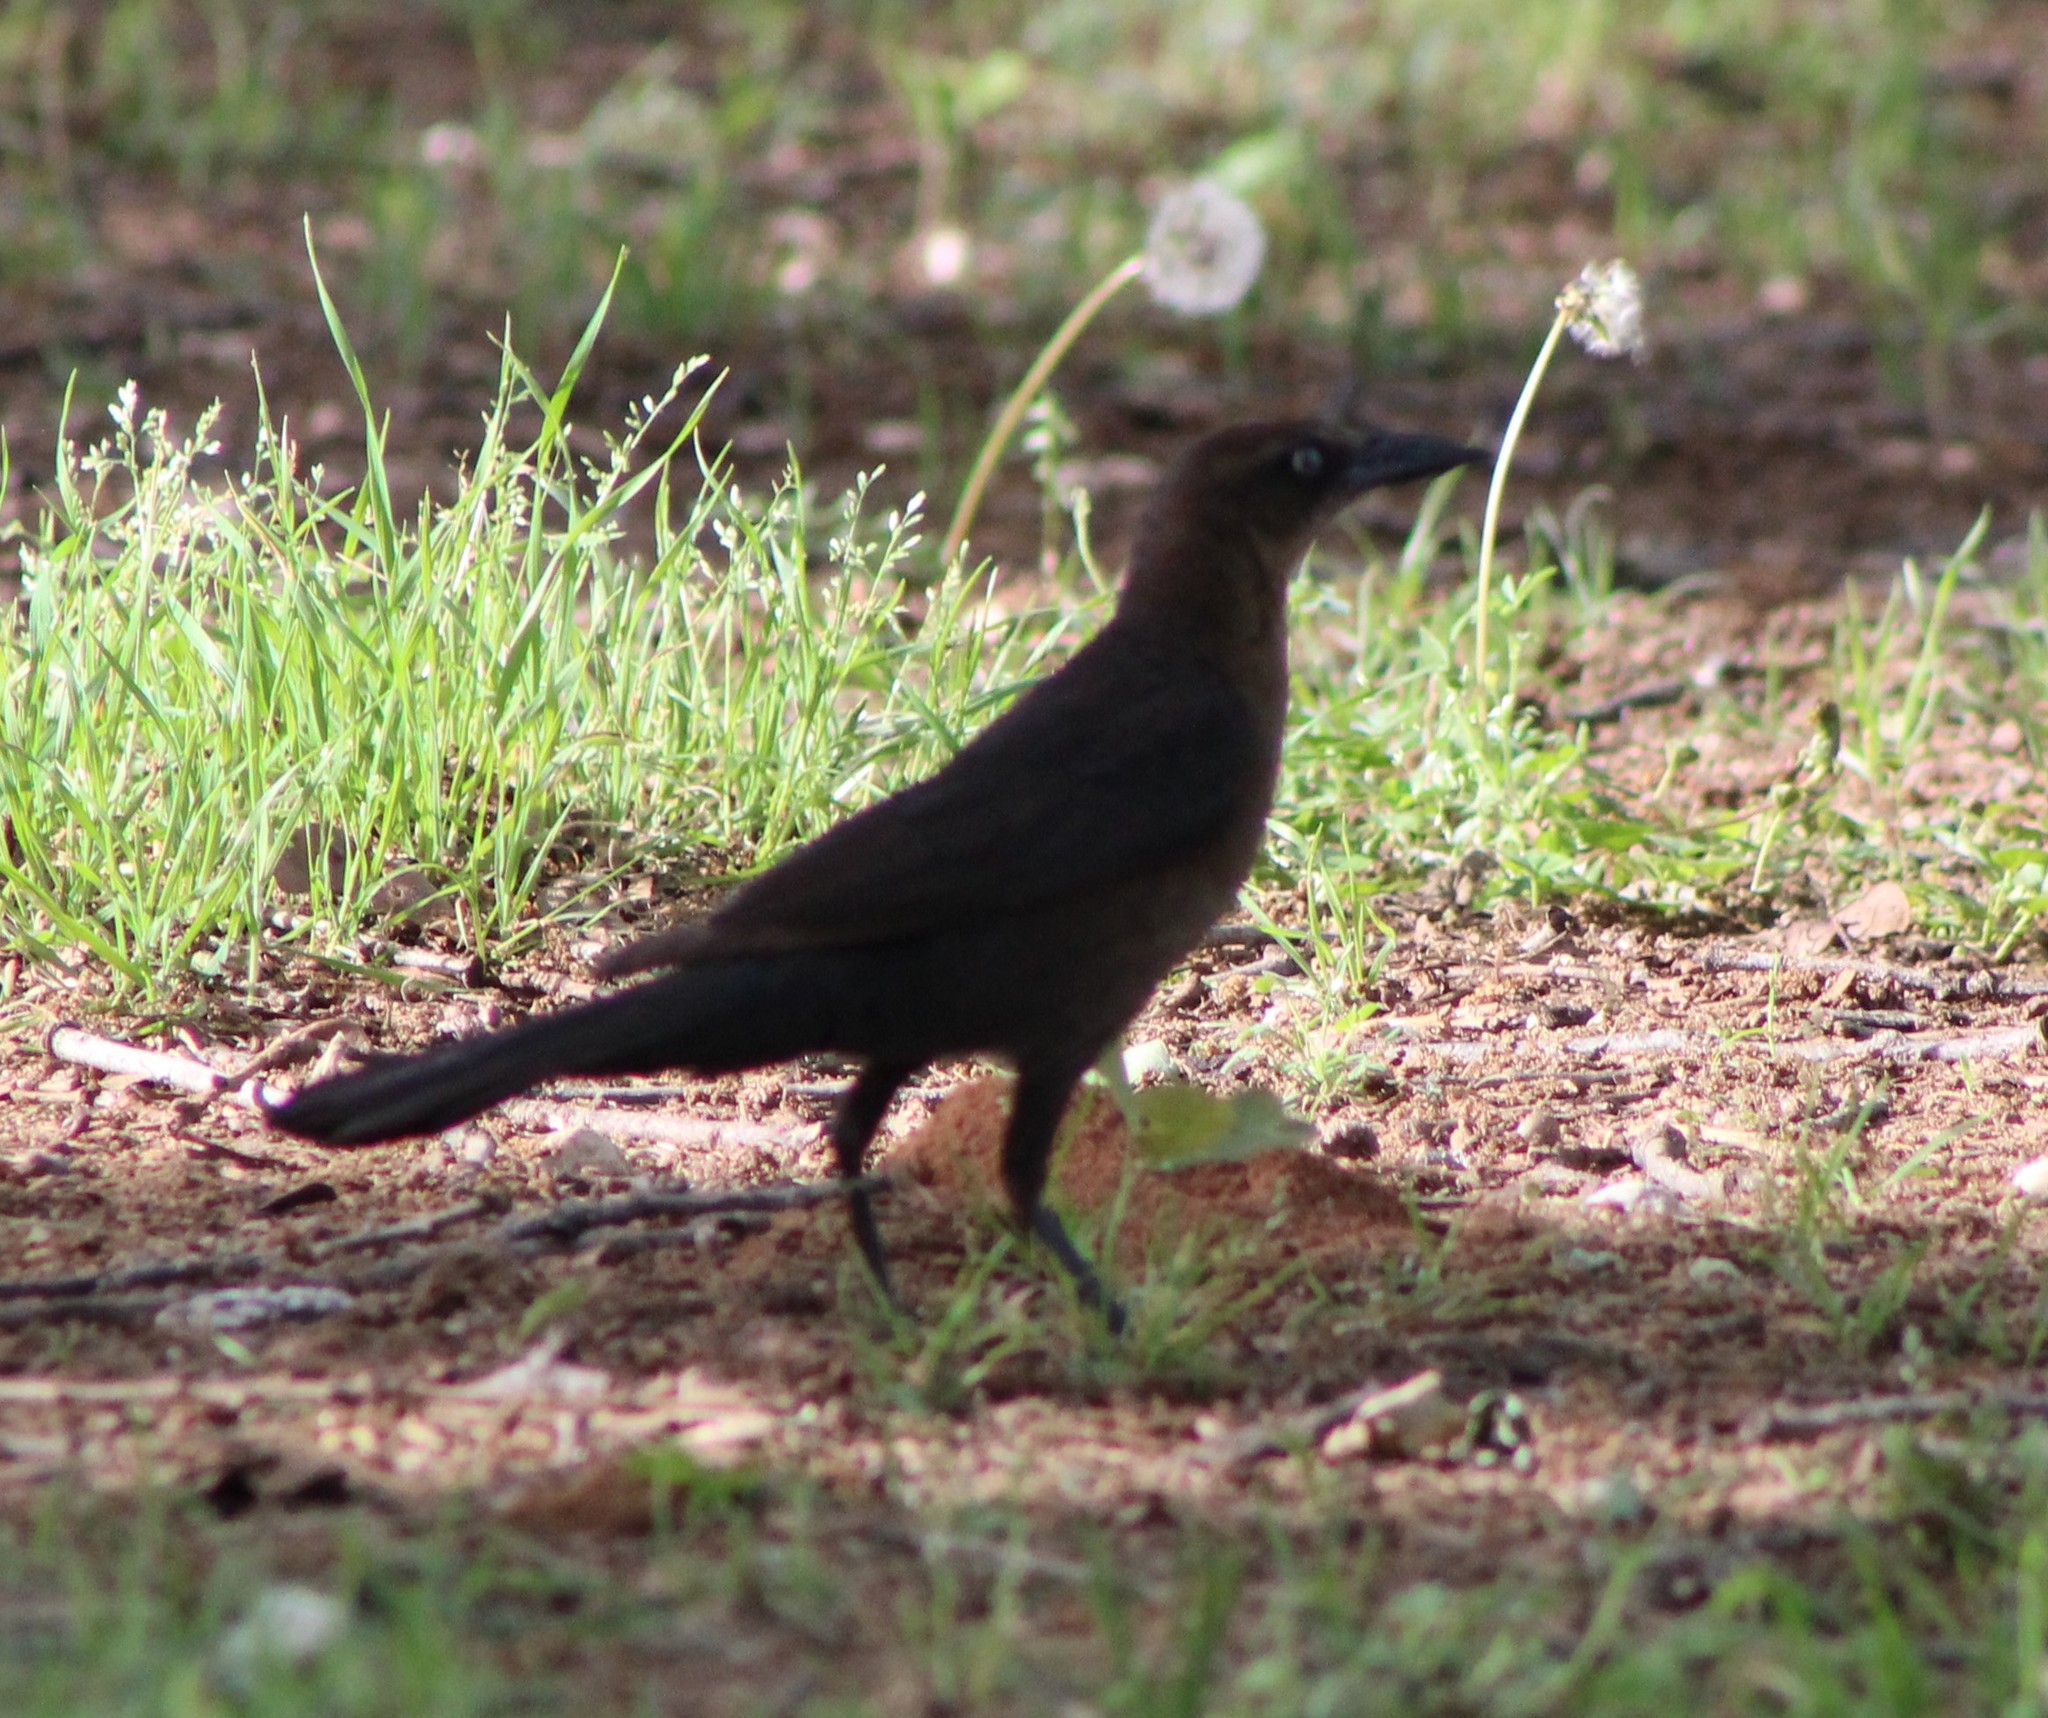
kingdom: Animalia
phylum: Chordata
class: Aves
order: Passeriformes
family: Icteridae
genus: Quiscalus
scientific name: Quiscalus mexicanus
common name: Great-tailed grackle
